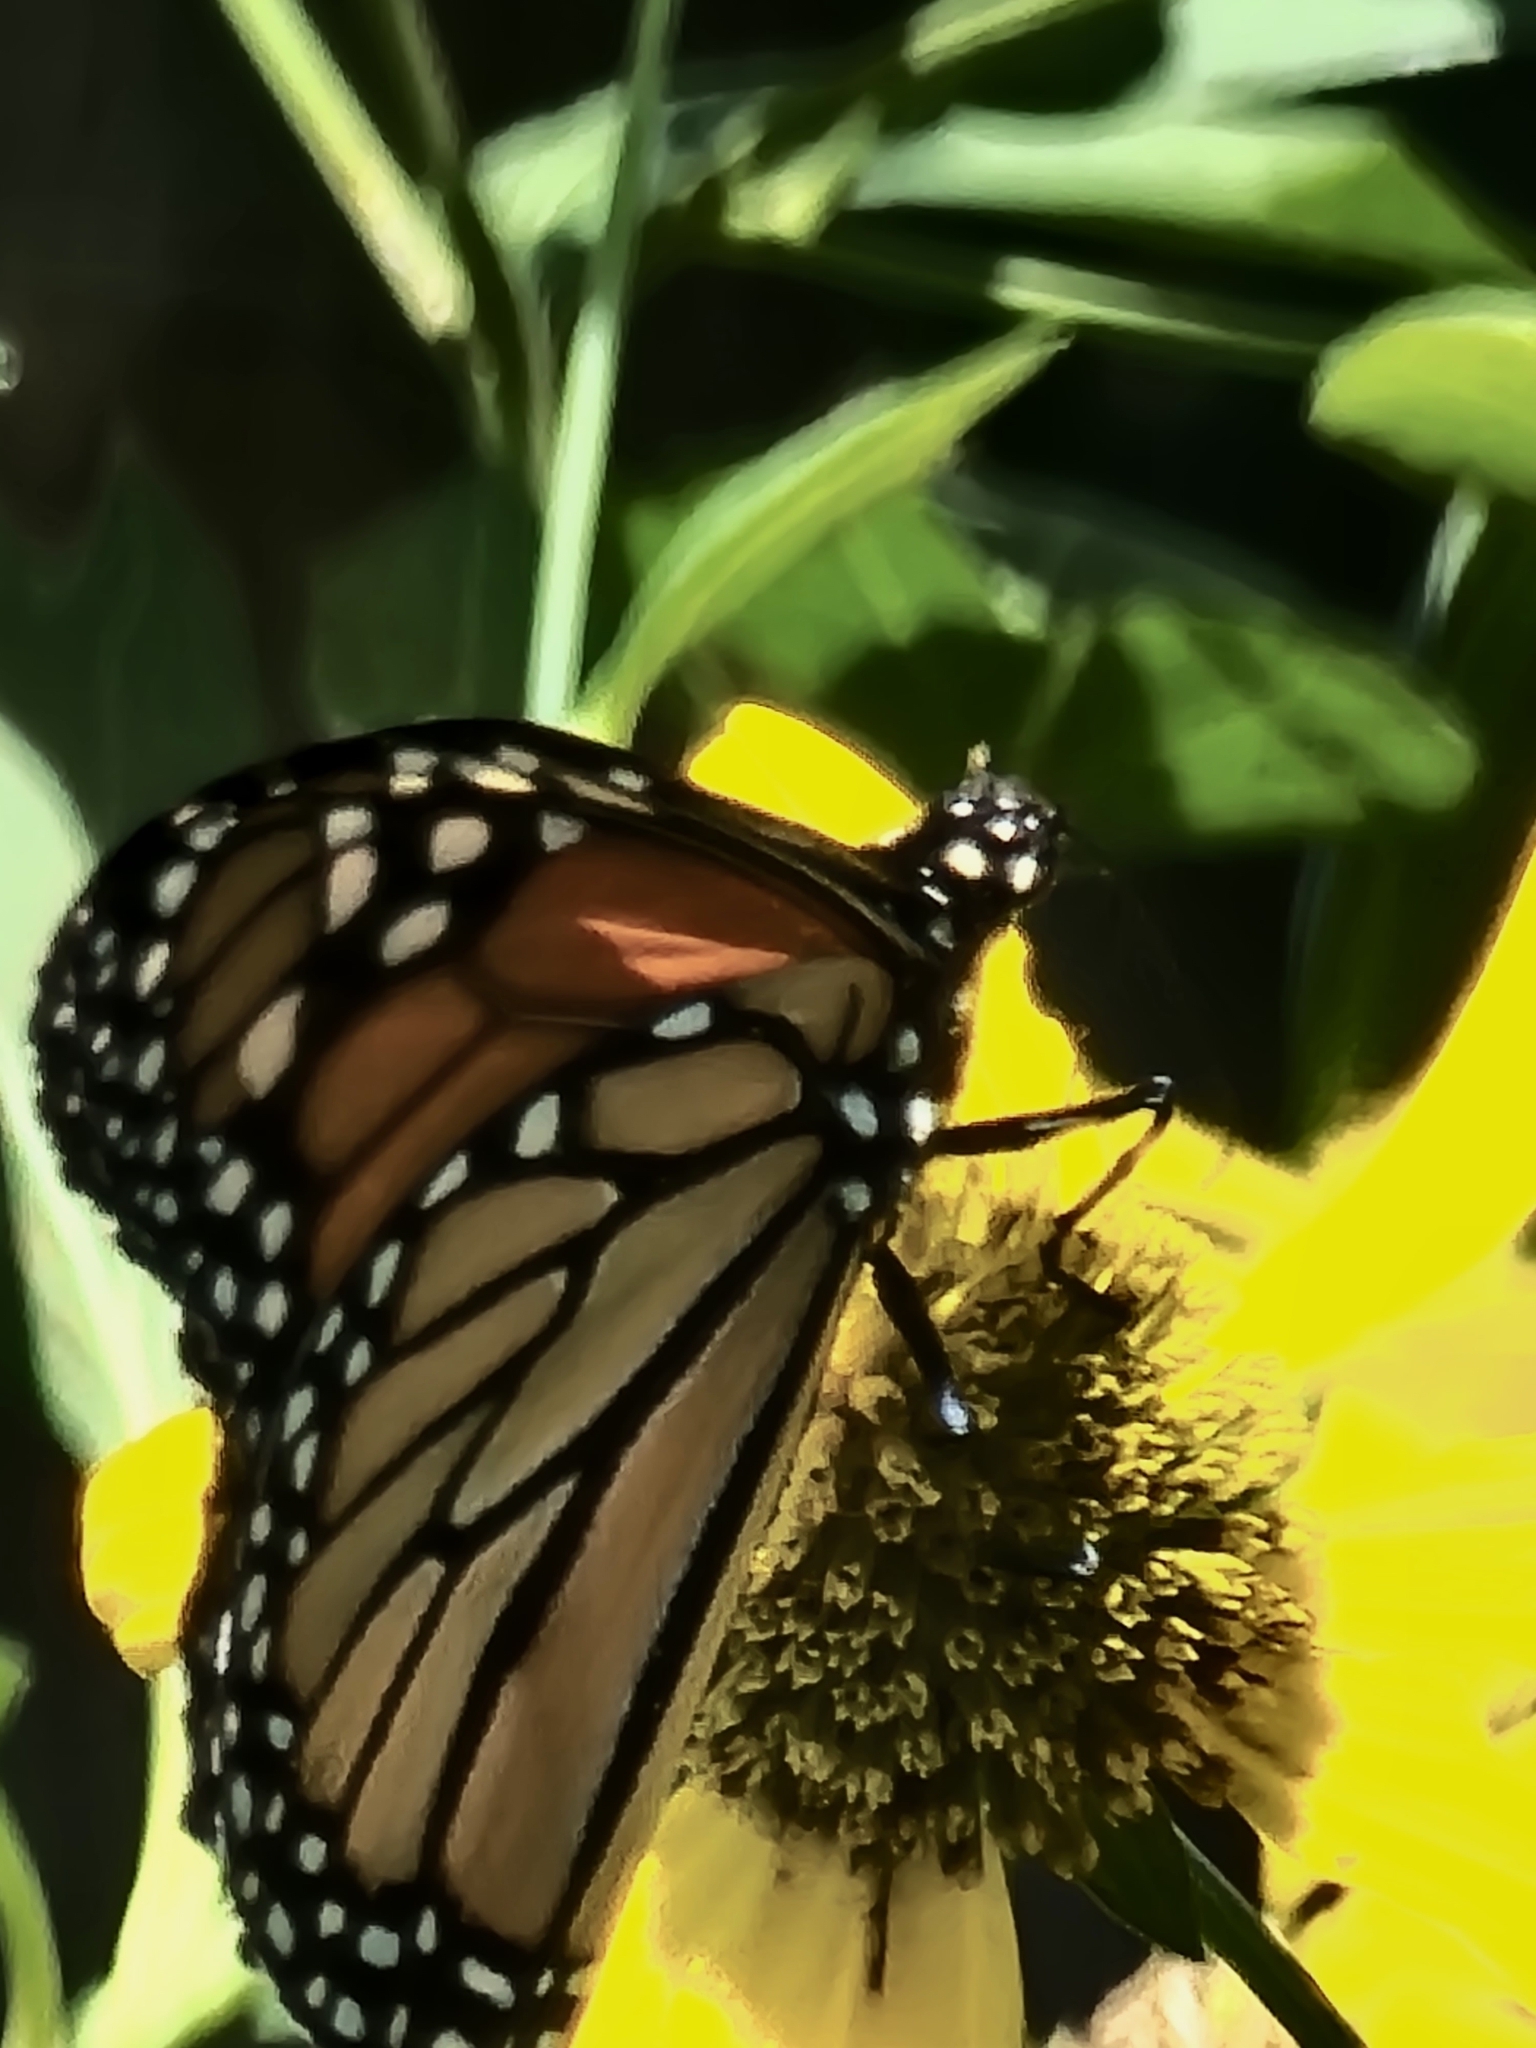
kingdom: Animalia
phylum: Arthropoda
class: Insecta
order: Lepidoptera
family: Nymphalidae
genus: Danaus
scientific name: Danaus plexippus
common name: Monarch
